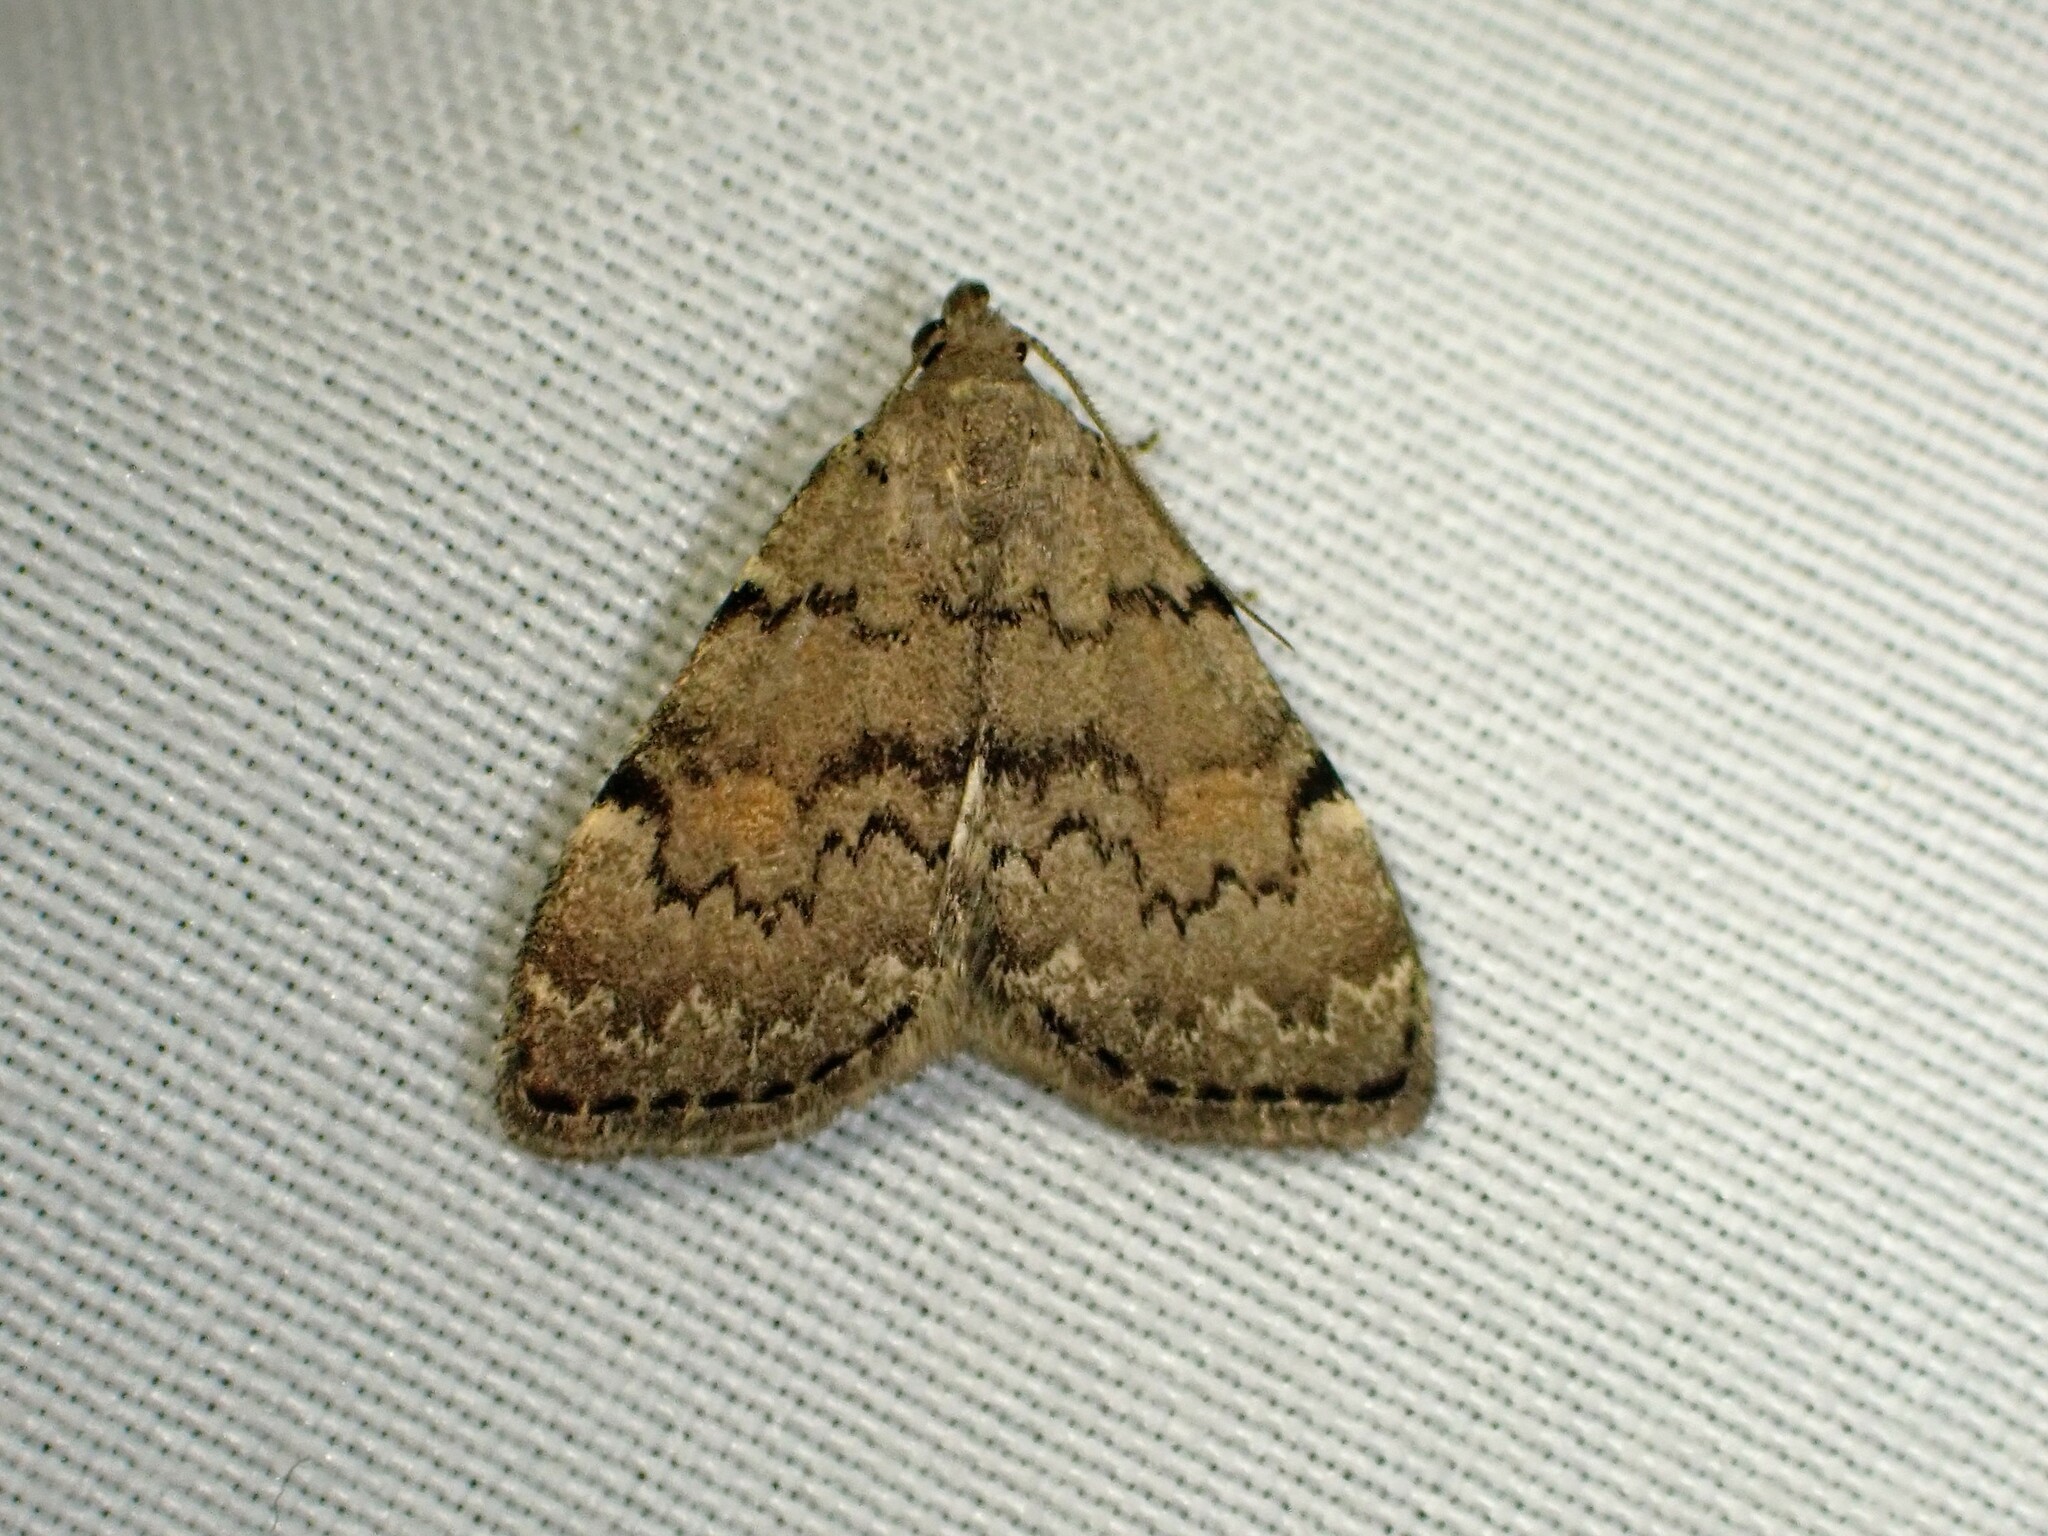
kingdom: Animalia
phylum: Arthropoda
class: Insecta
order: Lepidoptera
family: Erebidae
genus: Idia
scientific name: Idia aemula
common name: Common idia moth
